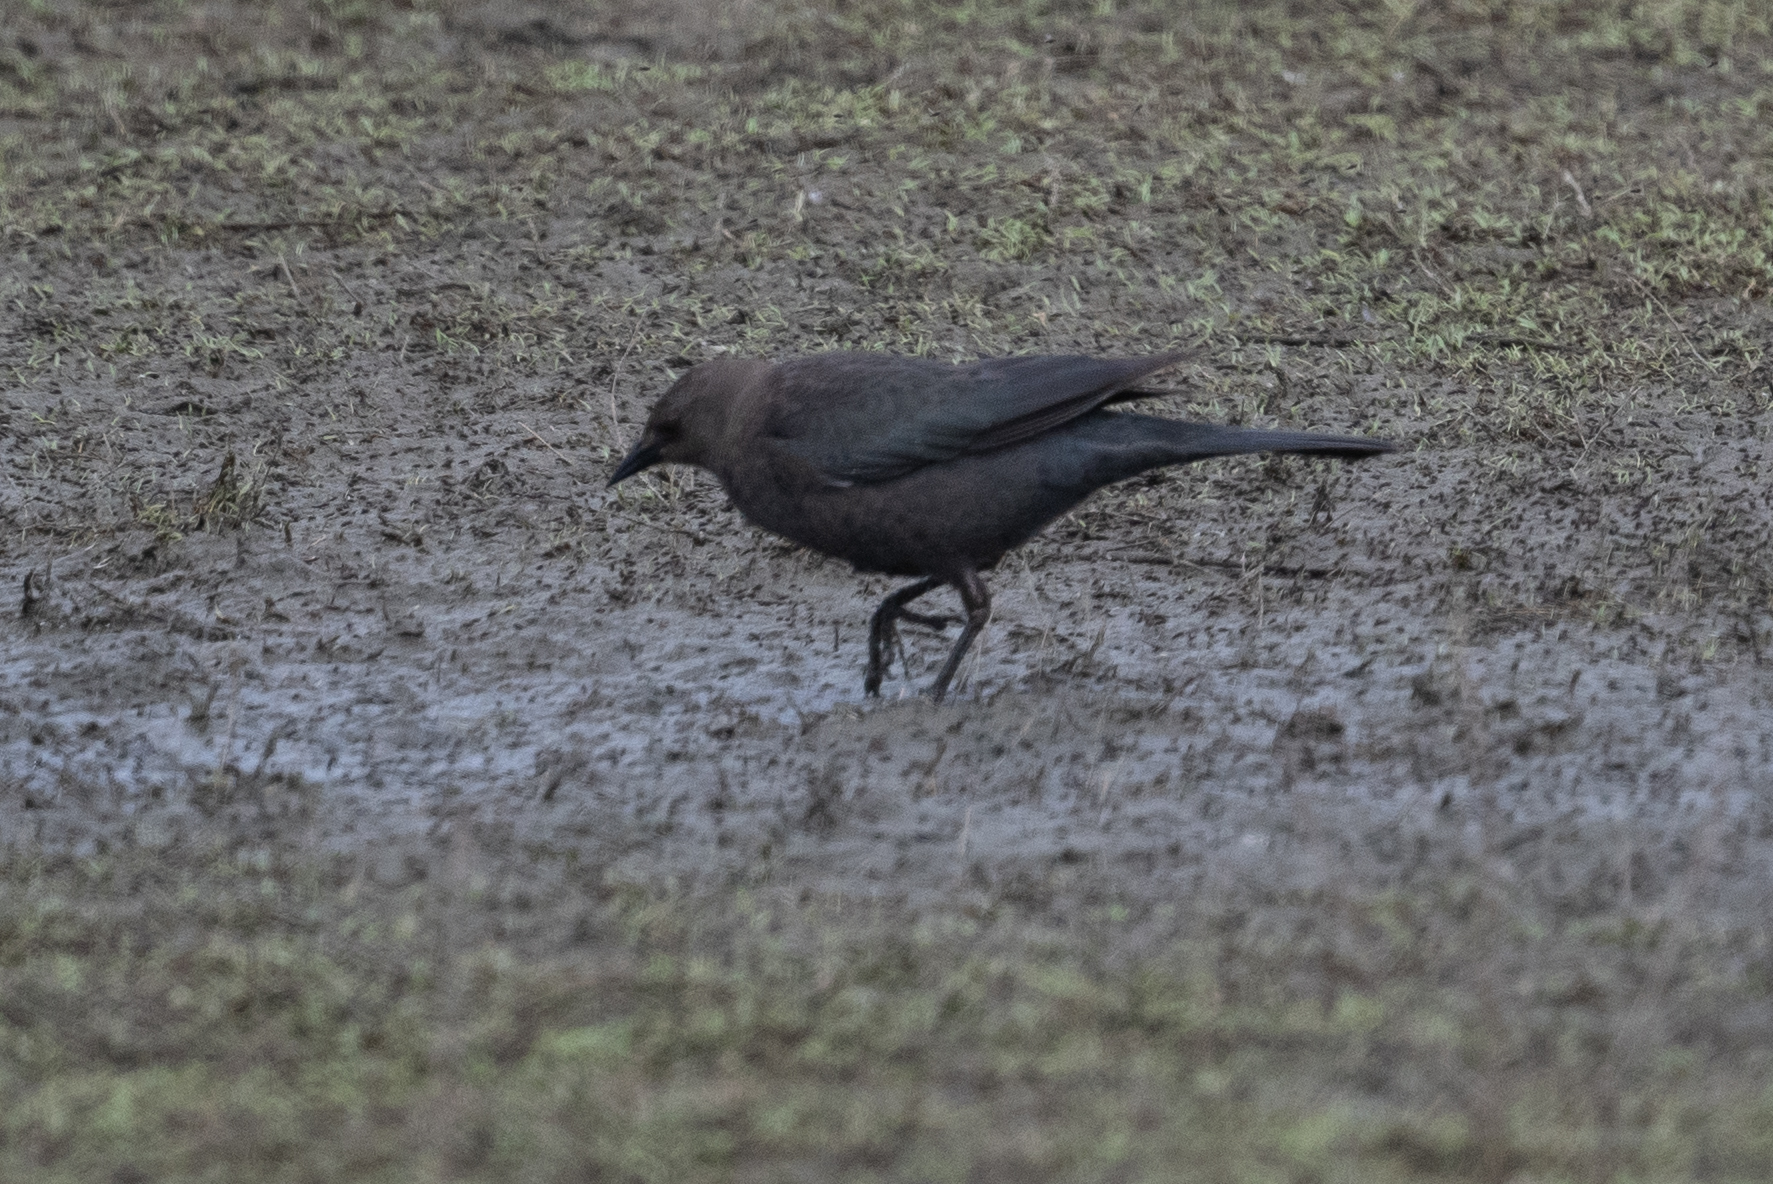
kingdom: Animalia
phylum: Chordata
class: Aves
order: Passeriformes
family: Icteridae
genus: Euphagus
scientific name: Euphagus cyanocephalus
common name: Brewer's blackbird
